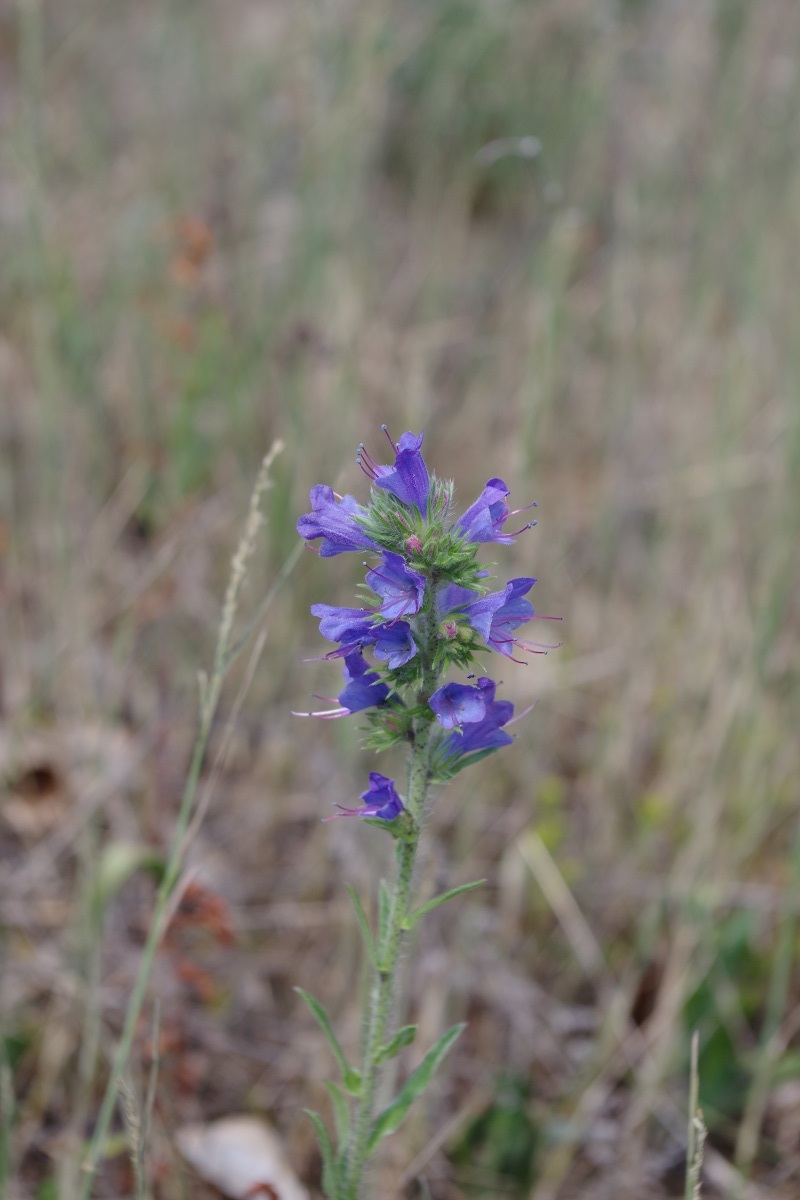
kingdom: Plantae
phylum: Tracheophyta
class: Magnoliopsida
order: Boraginales
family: Boraginaceae
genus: Echium
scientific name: Echium vulgare
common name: Common viper's bugloss
